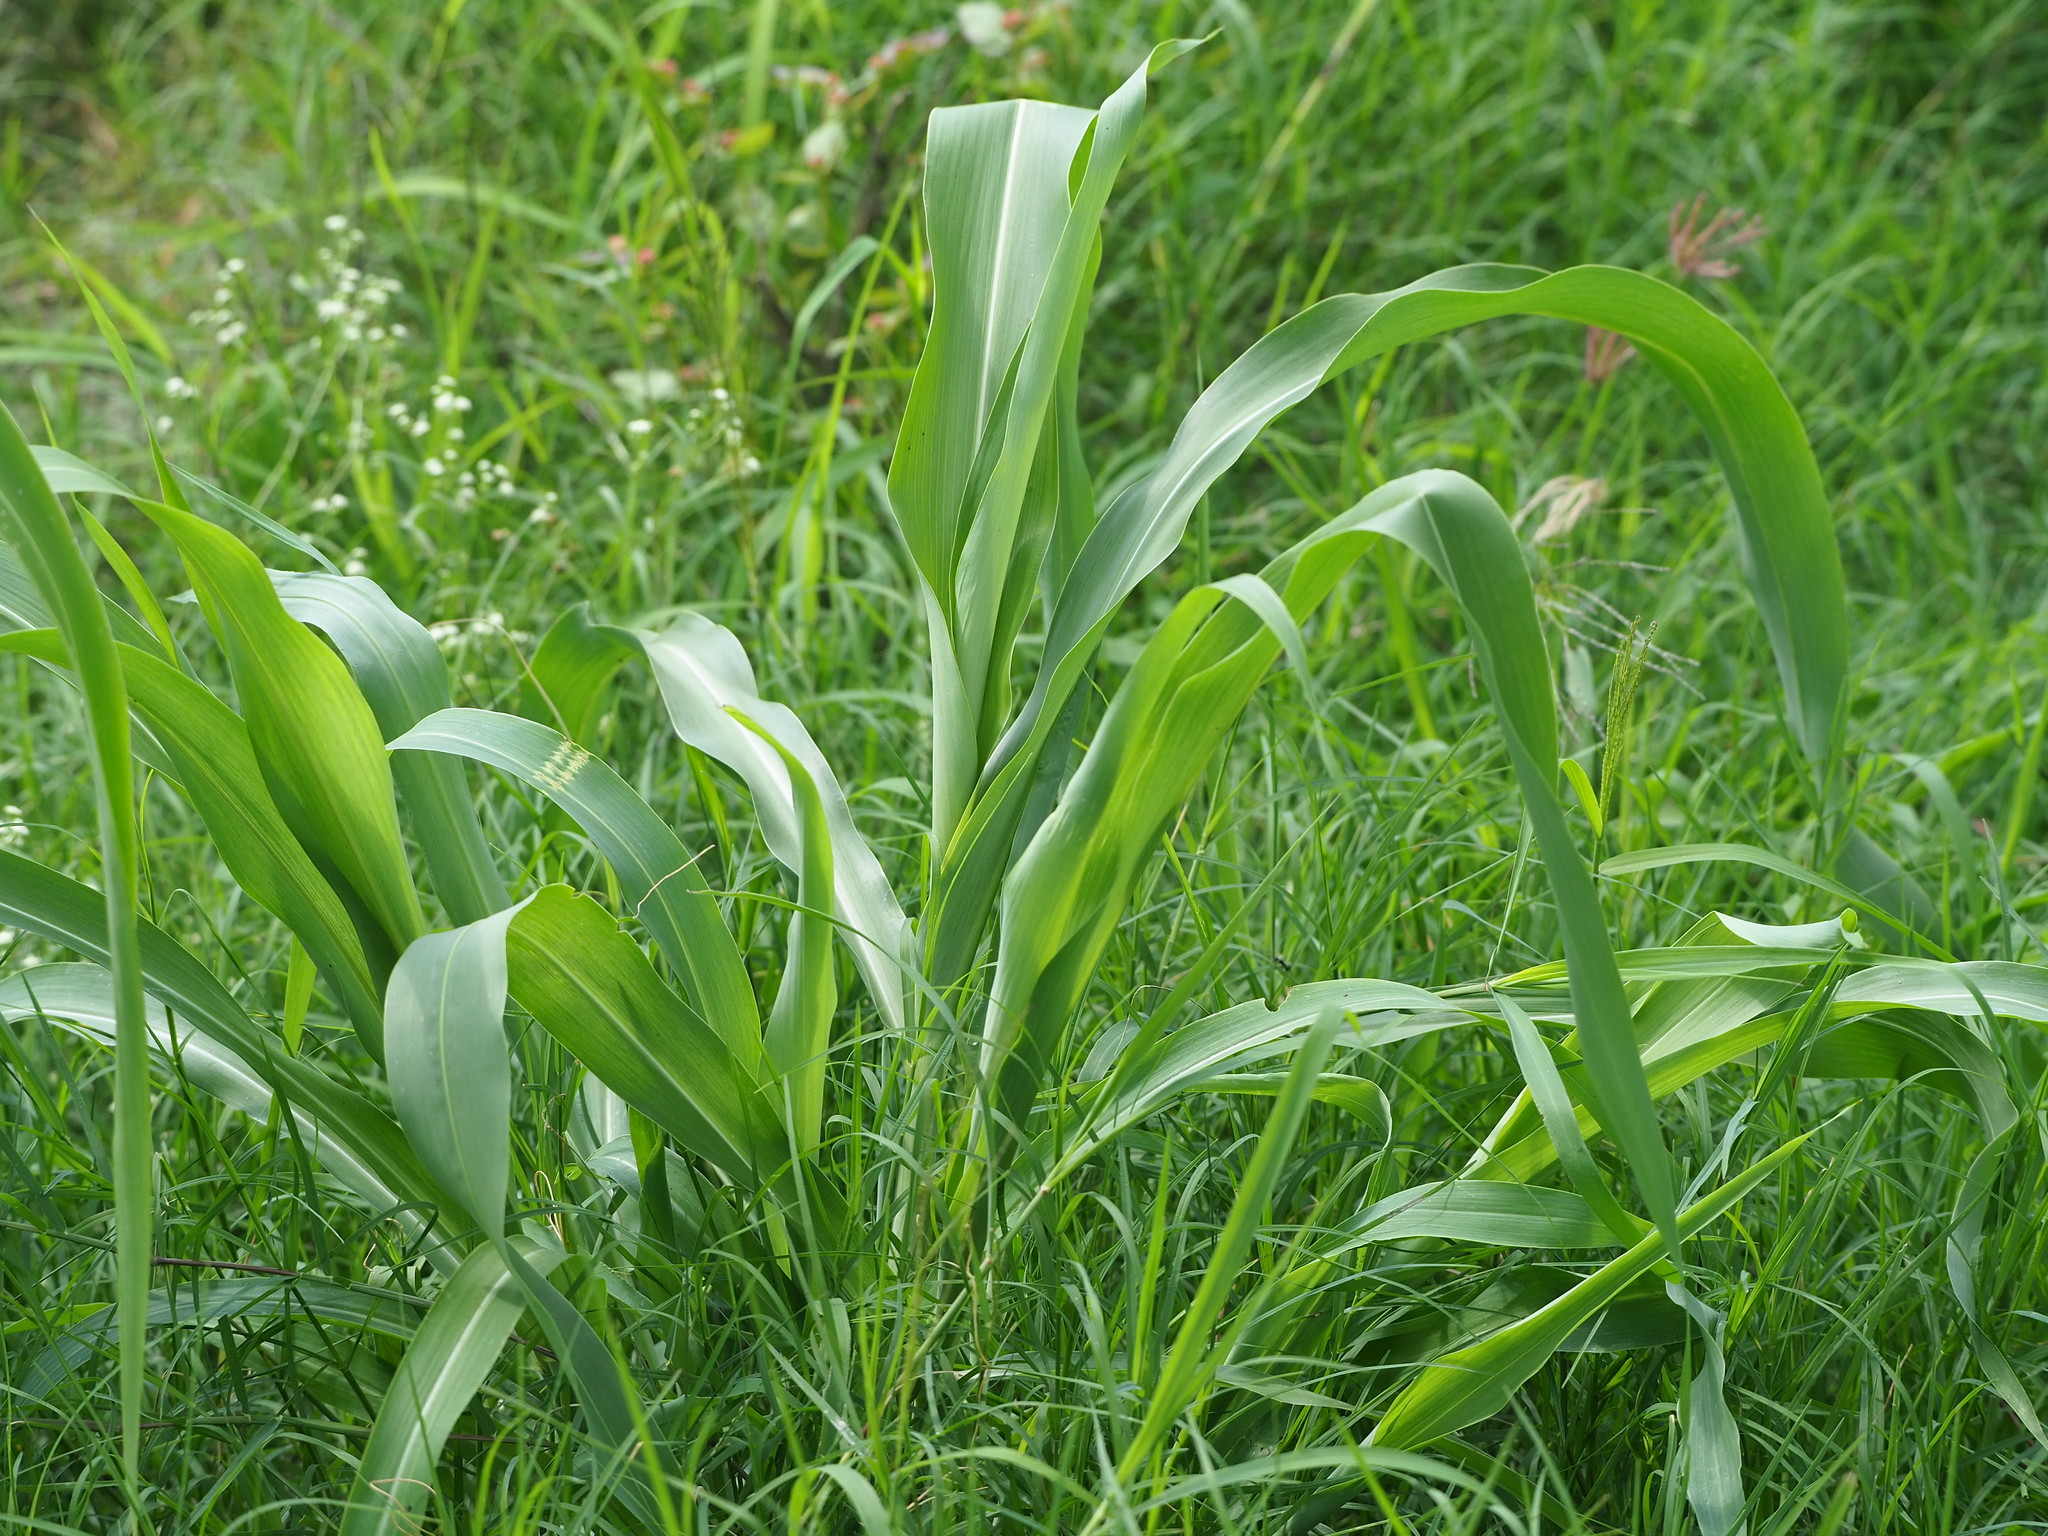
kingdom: Plantae
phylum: Tracheophyta
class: Liliopsida
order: Poales
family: Poaceae
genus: Sorghum
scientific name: Sorghum arundinaceum
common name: Sorghum
